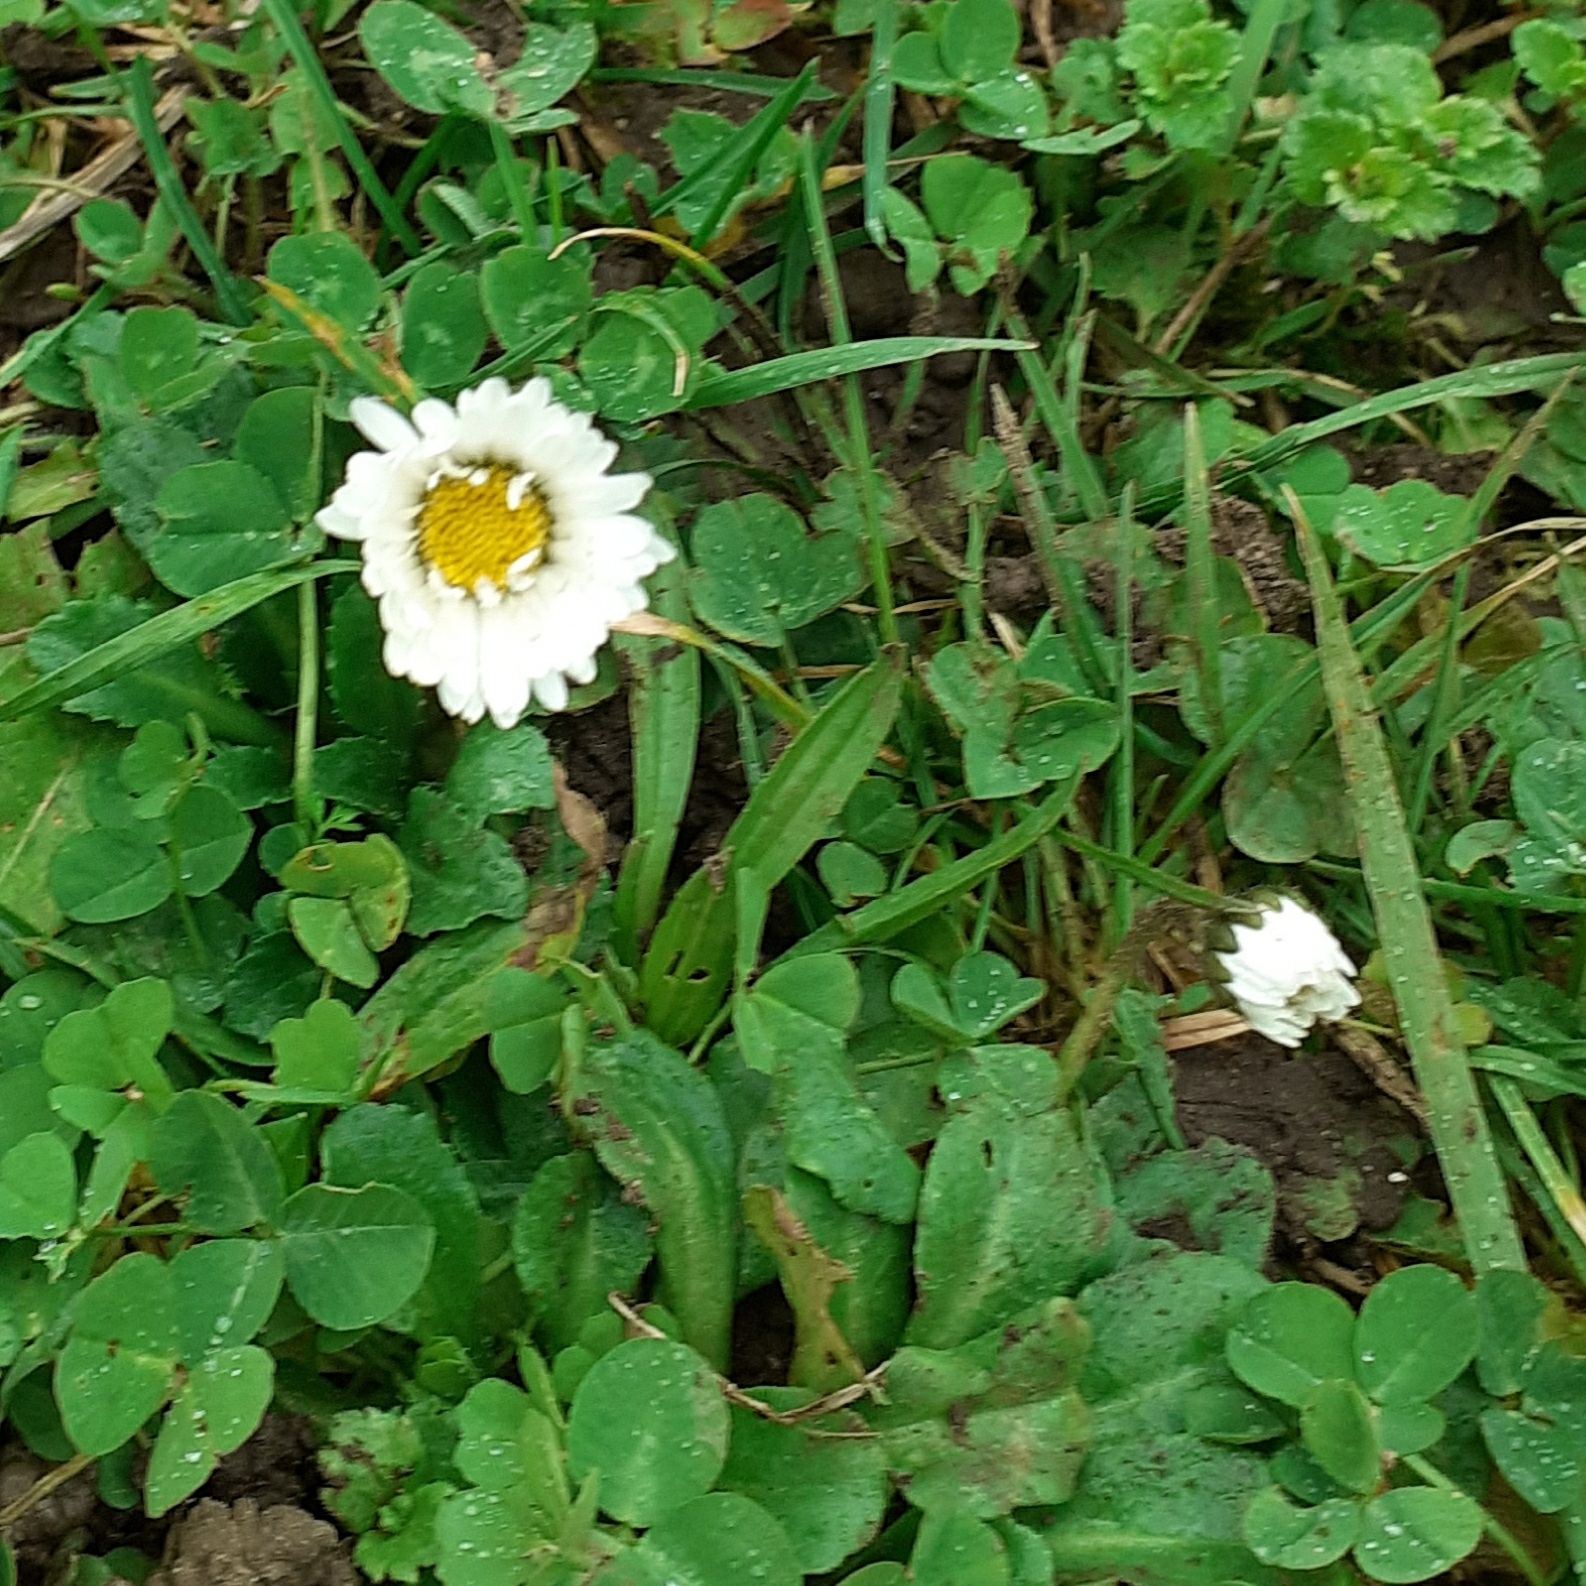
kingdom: Plantae
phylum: Tracheophyta
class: Magnoliopsida
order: Asterales
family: Asteraceae
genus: Bellis
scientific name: Bellis perennis
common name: Lawndaisy
